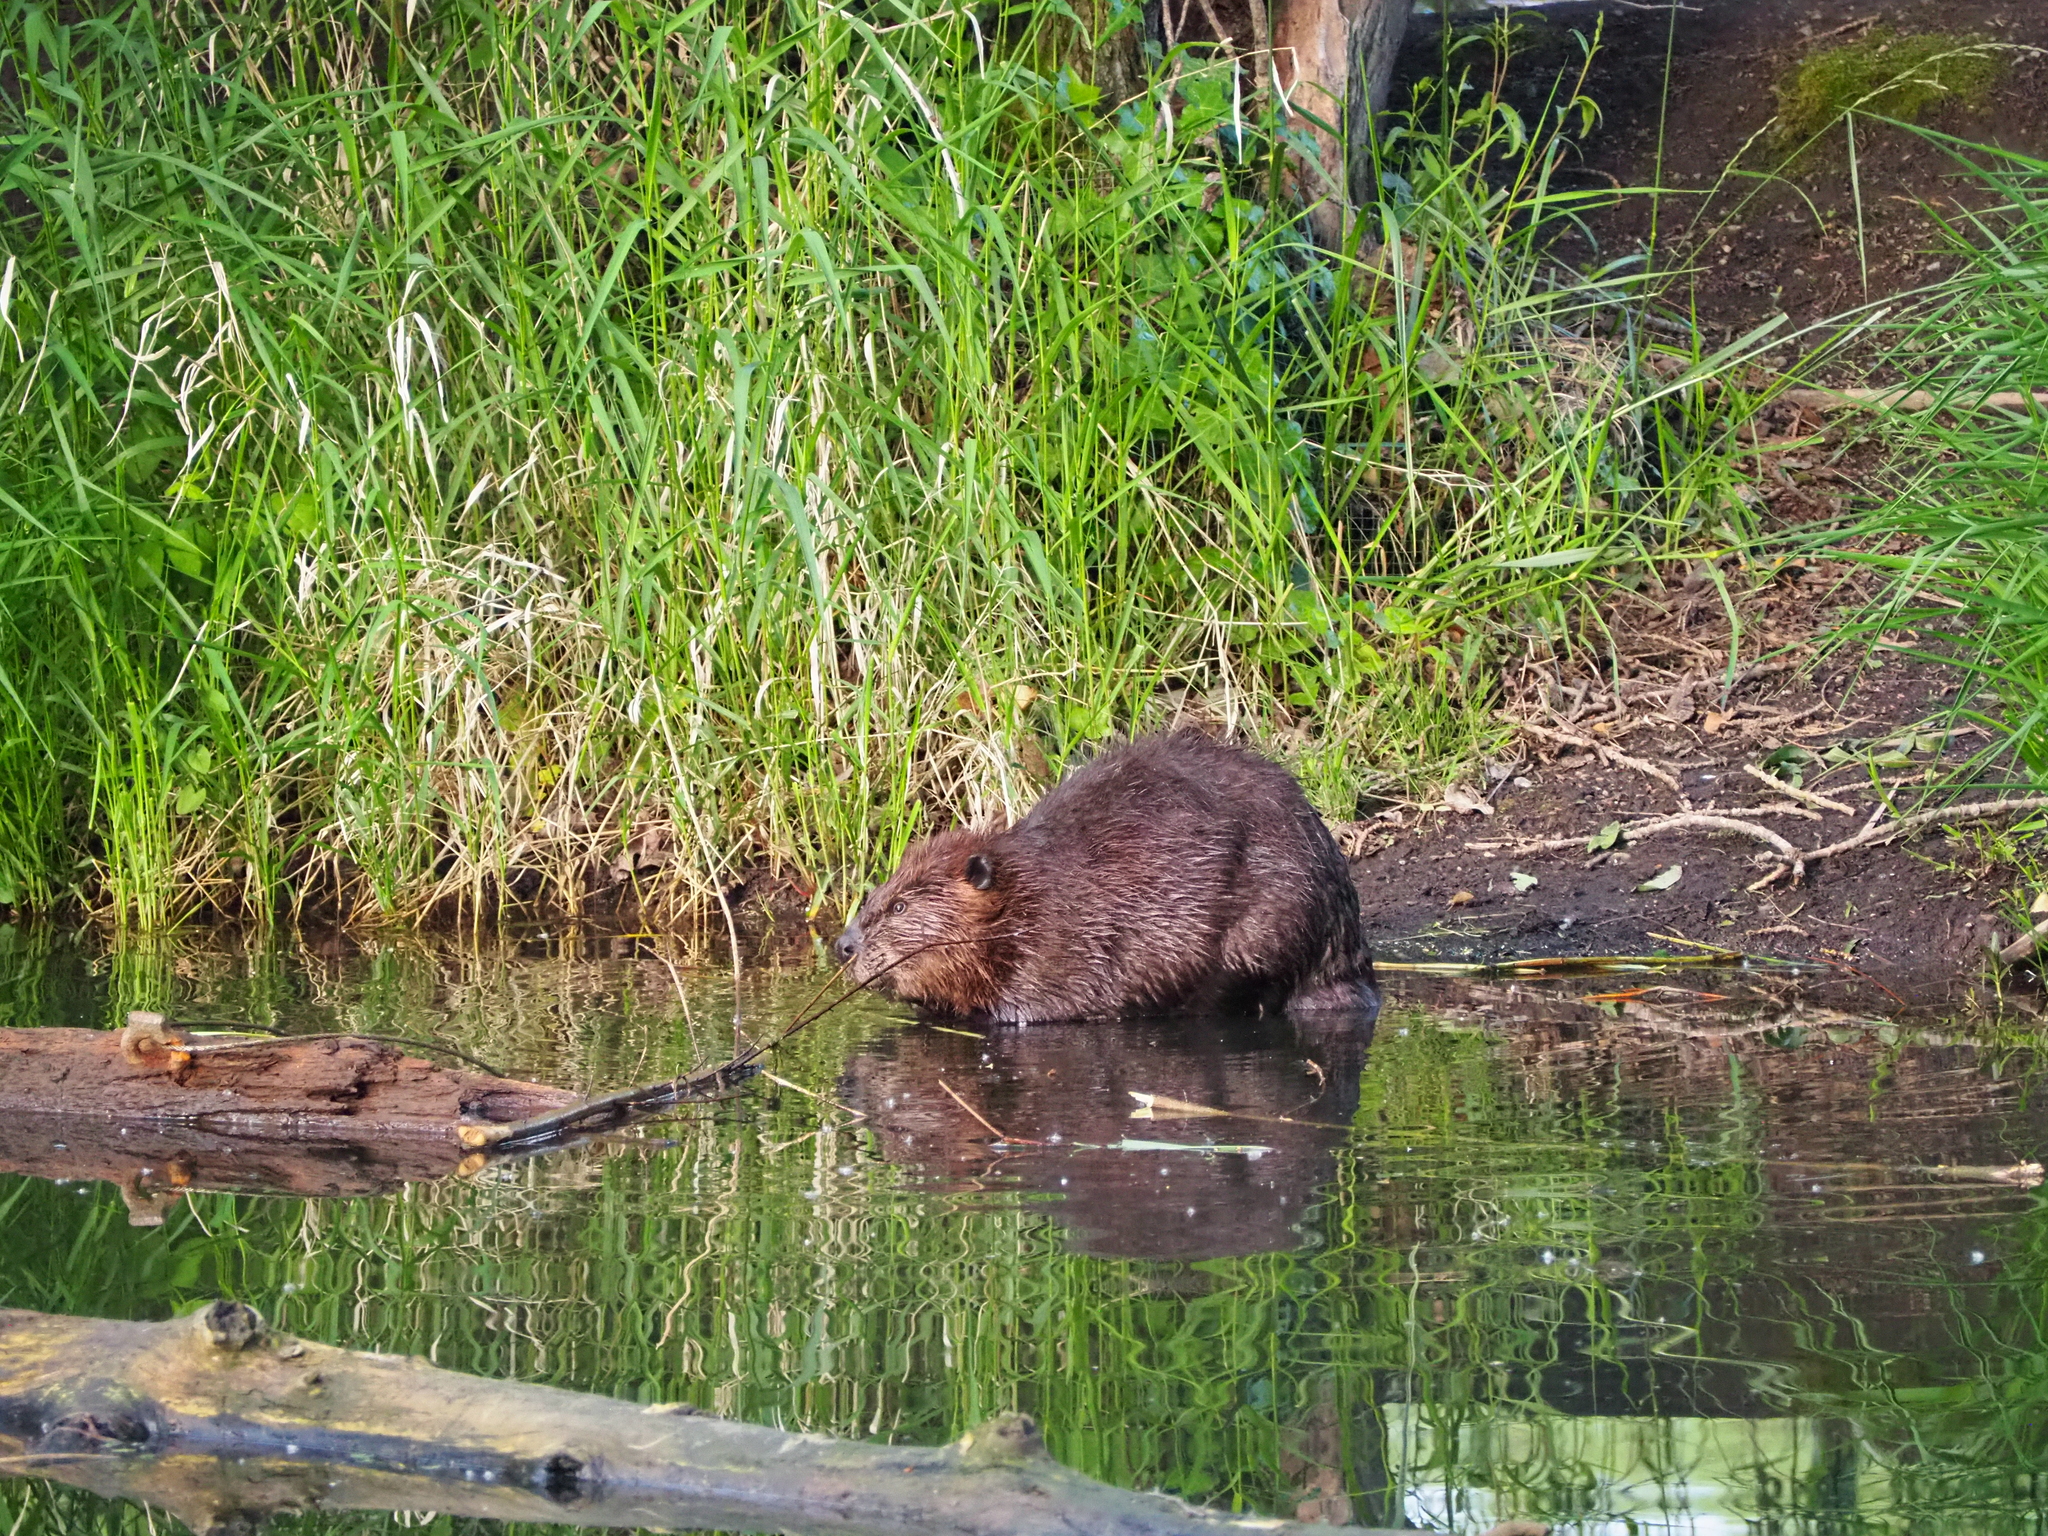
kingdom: Animalia
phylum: Chordata
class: Mammalia
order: Rodentia
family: Castoridae
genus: Castor
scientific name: Castor canadensis
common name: American beaver
